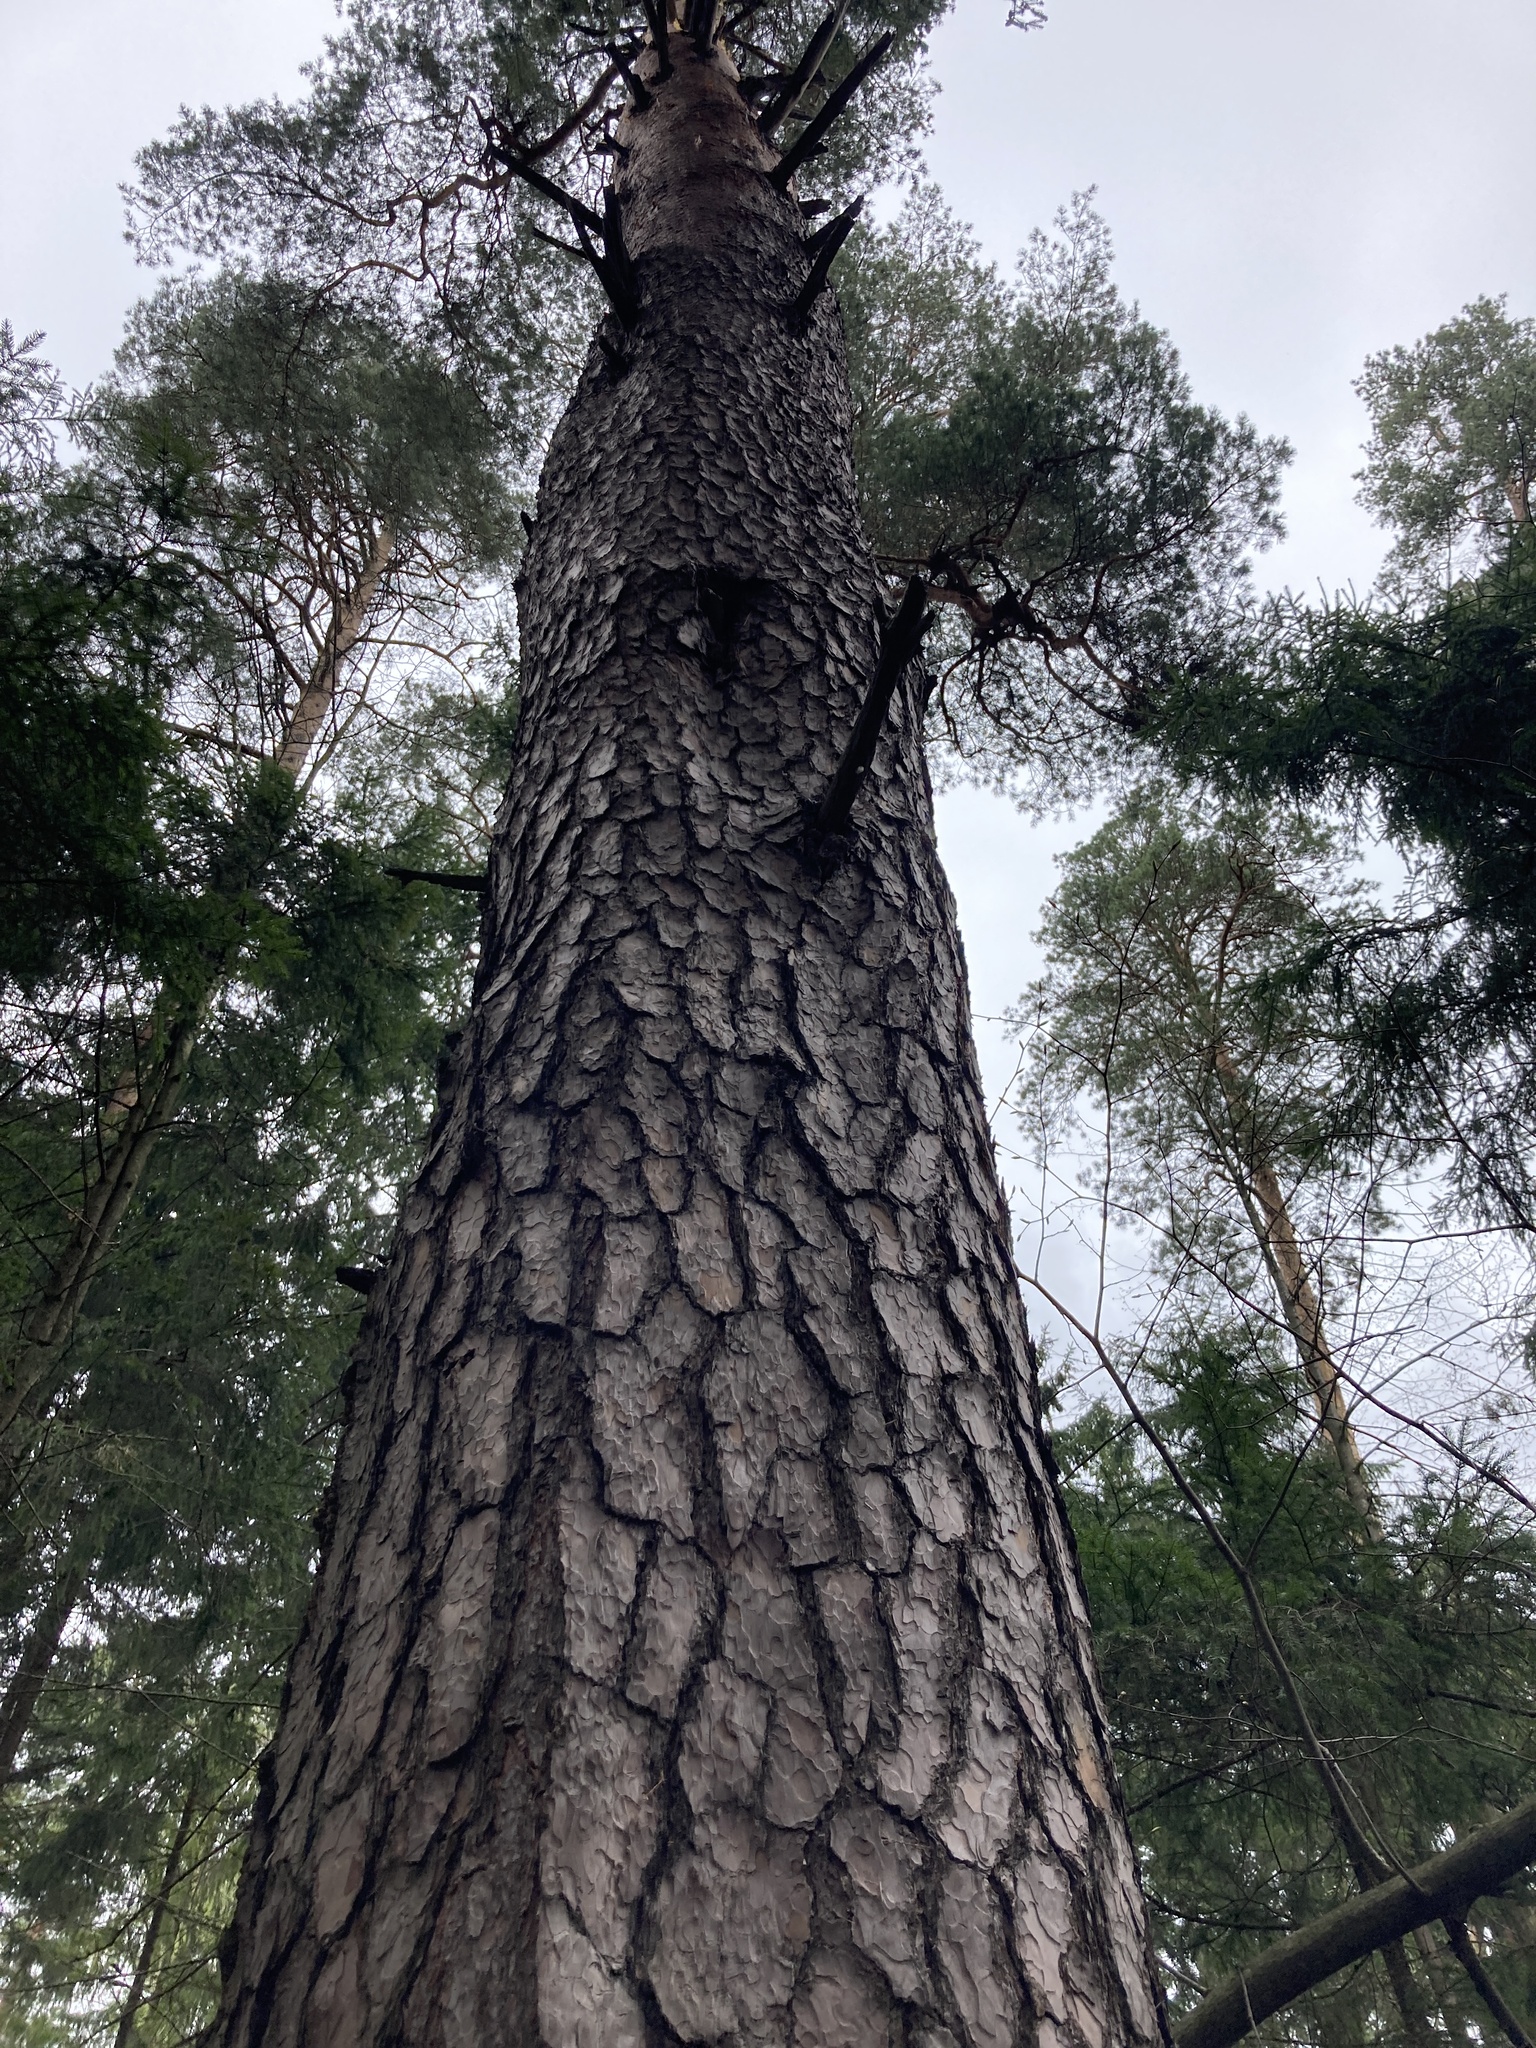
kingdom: Plantae
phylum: Tracheophyta
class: Pinopsida
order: Pinales
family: Pinaceae
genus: Pinus
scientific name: Pinus sylvestris
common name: Scots pine
